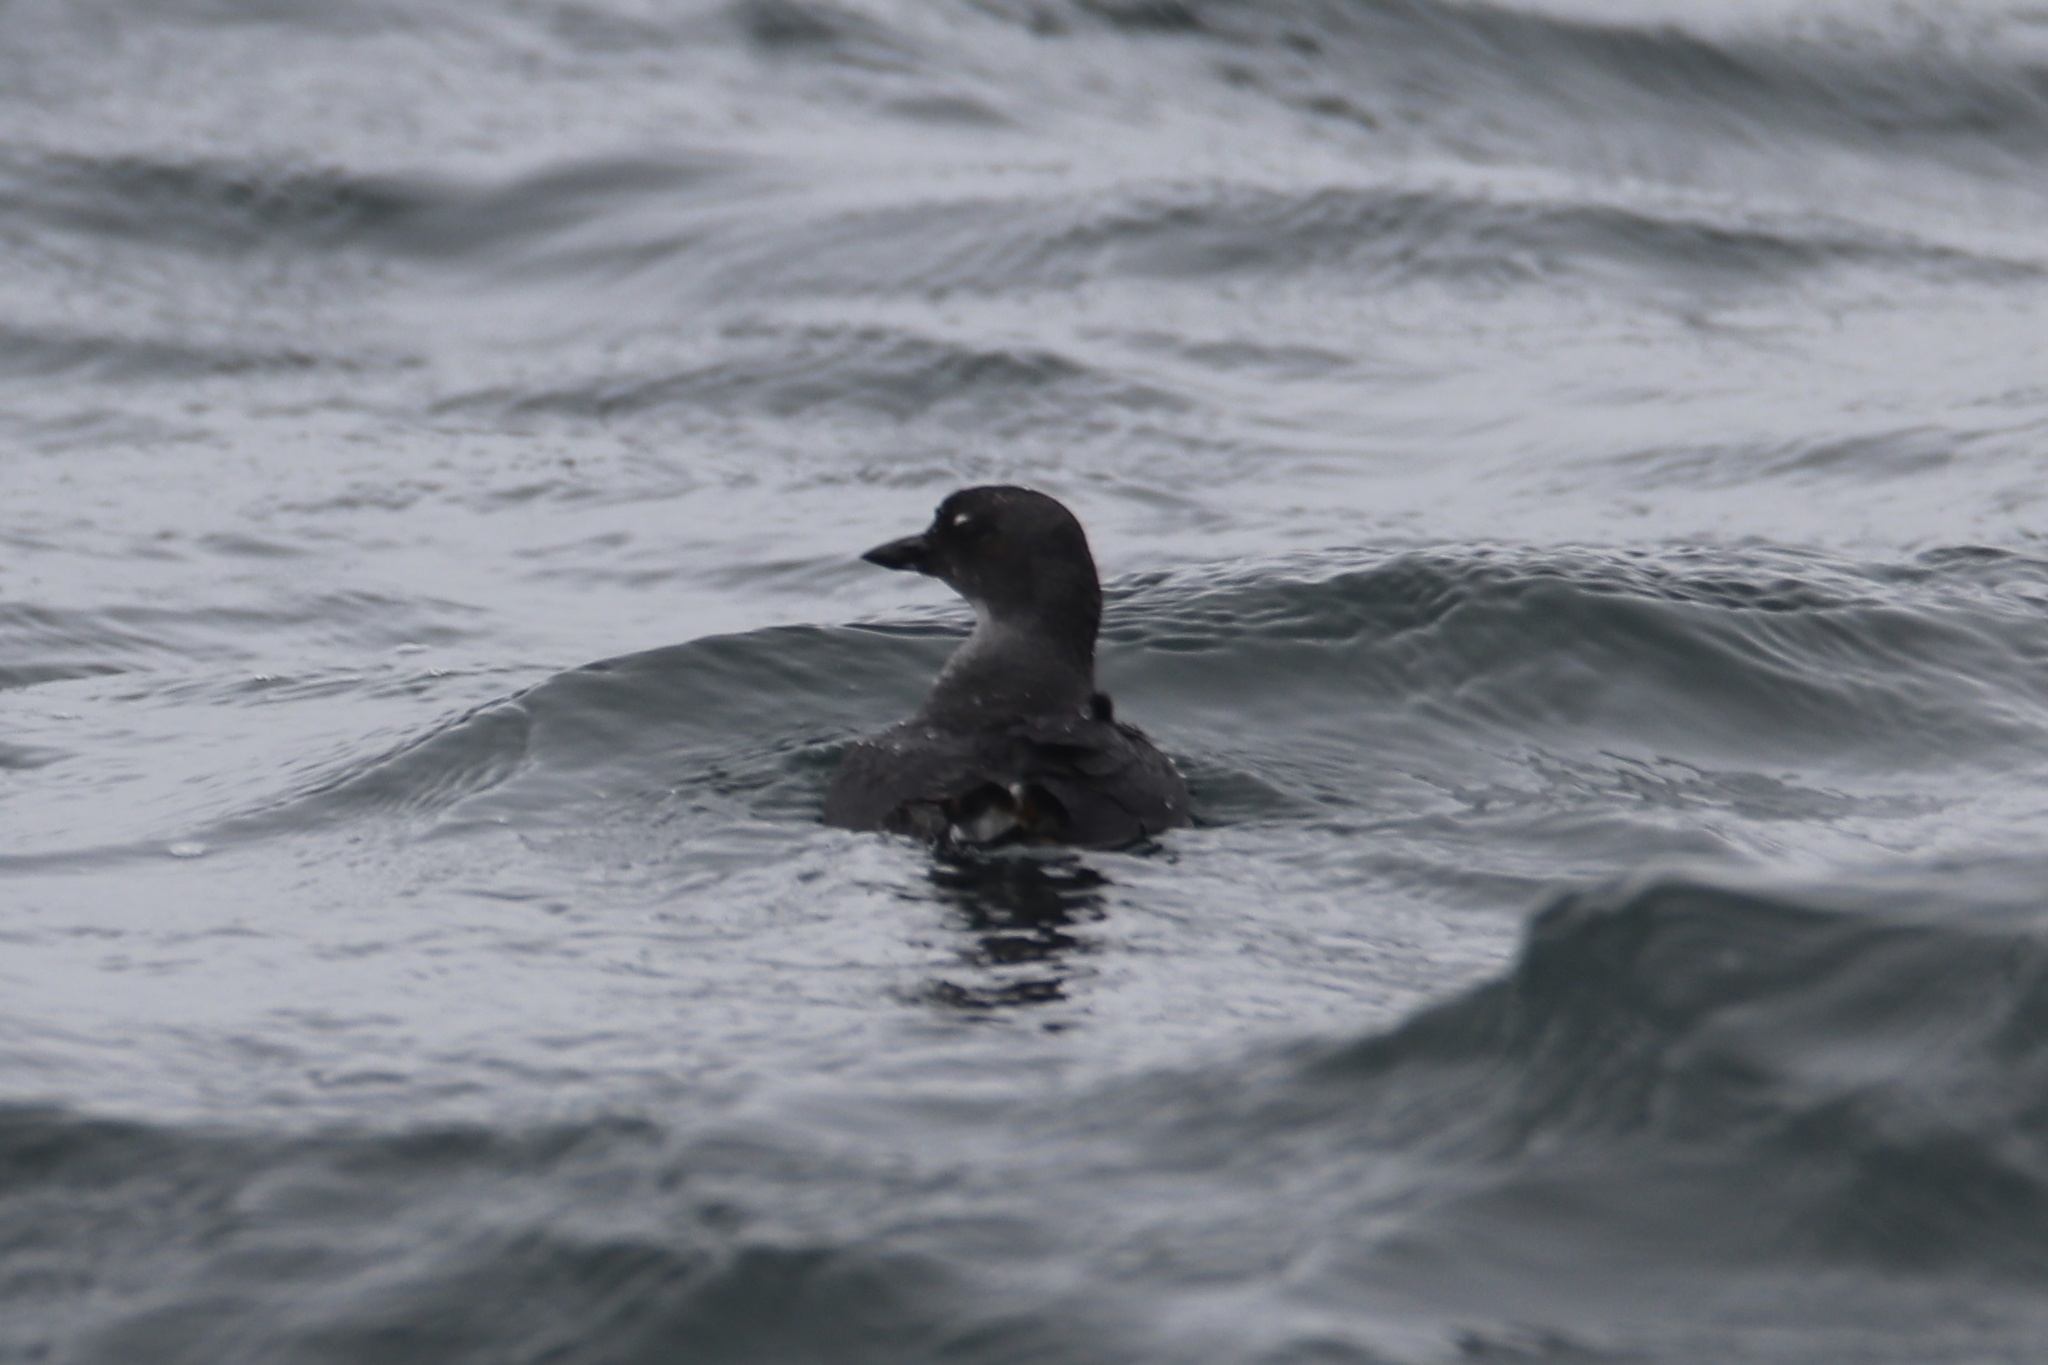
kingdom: Animalia
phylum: Chordata
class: Aves
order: Charadriiformes
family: Alcidae
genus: Ptychoramphus
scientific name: Ptychoramphus aleuticus
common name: Cassin's auklet
